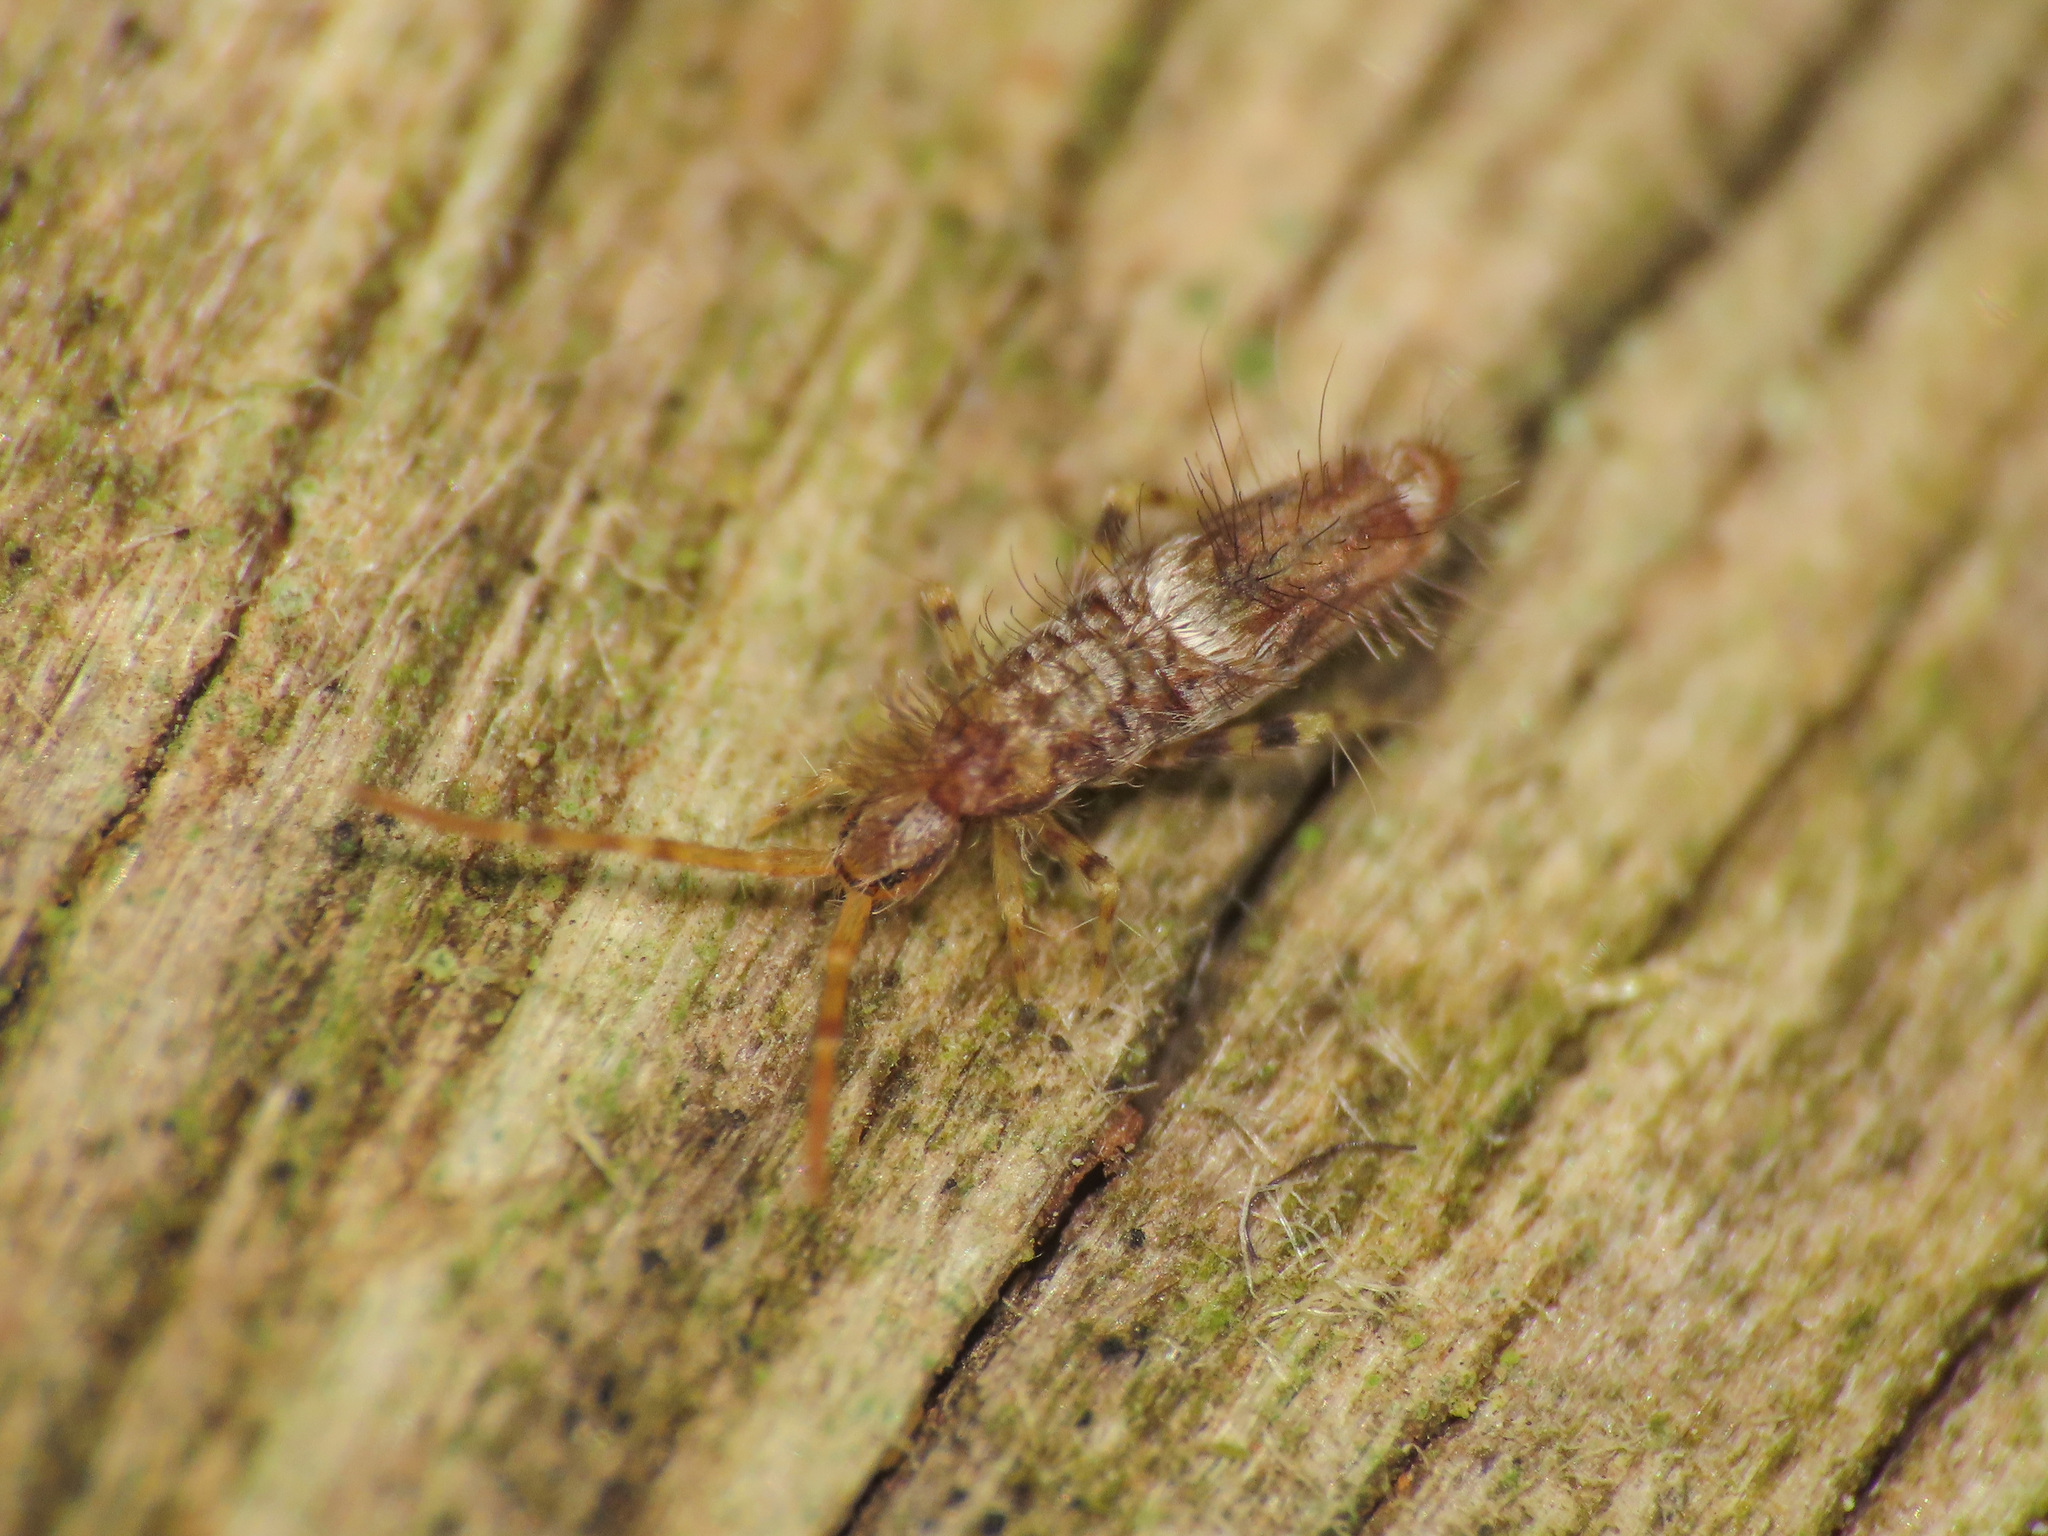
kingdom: Animalia
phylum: Arthropoda
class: Collembola
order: Entomobryomorpha
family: Entomobryidae
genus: Entomobrya
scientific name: Entomobrya dorsalis
